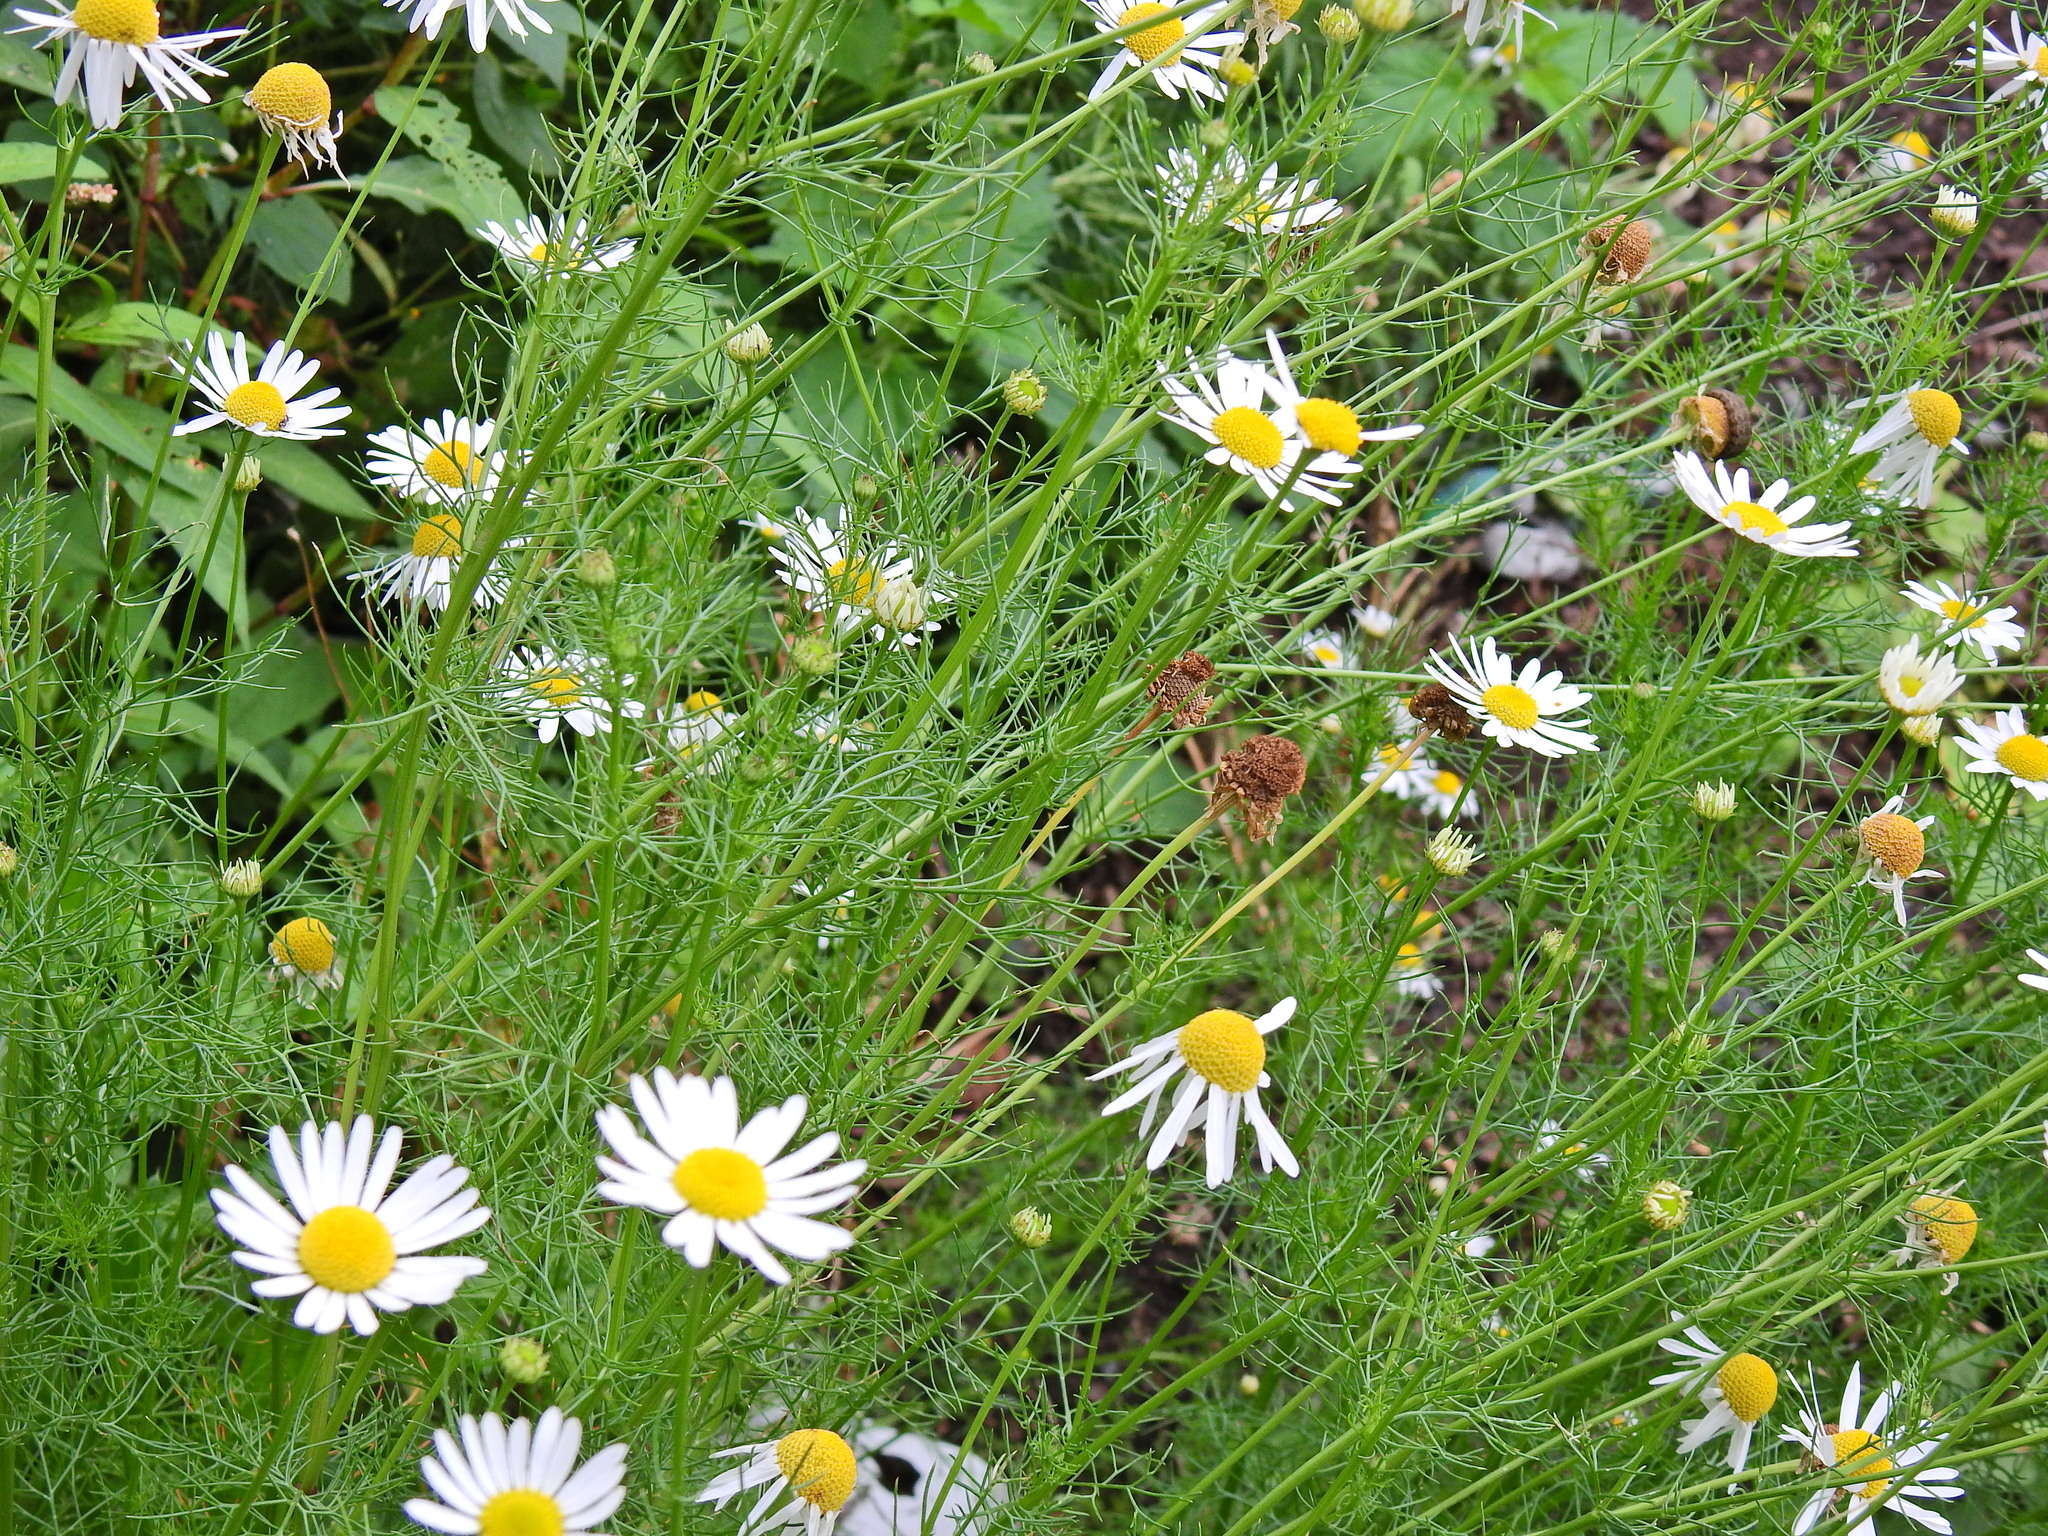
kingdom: Plantae
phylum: Tracheophyta
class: Magnoliopsida
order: Asterales
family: Asteraceae
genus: Tripleurospermum
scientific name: Tripleurospermum inodorum
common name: Scentless mayweed
